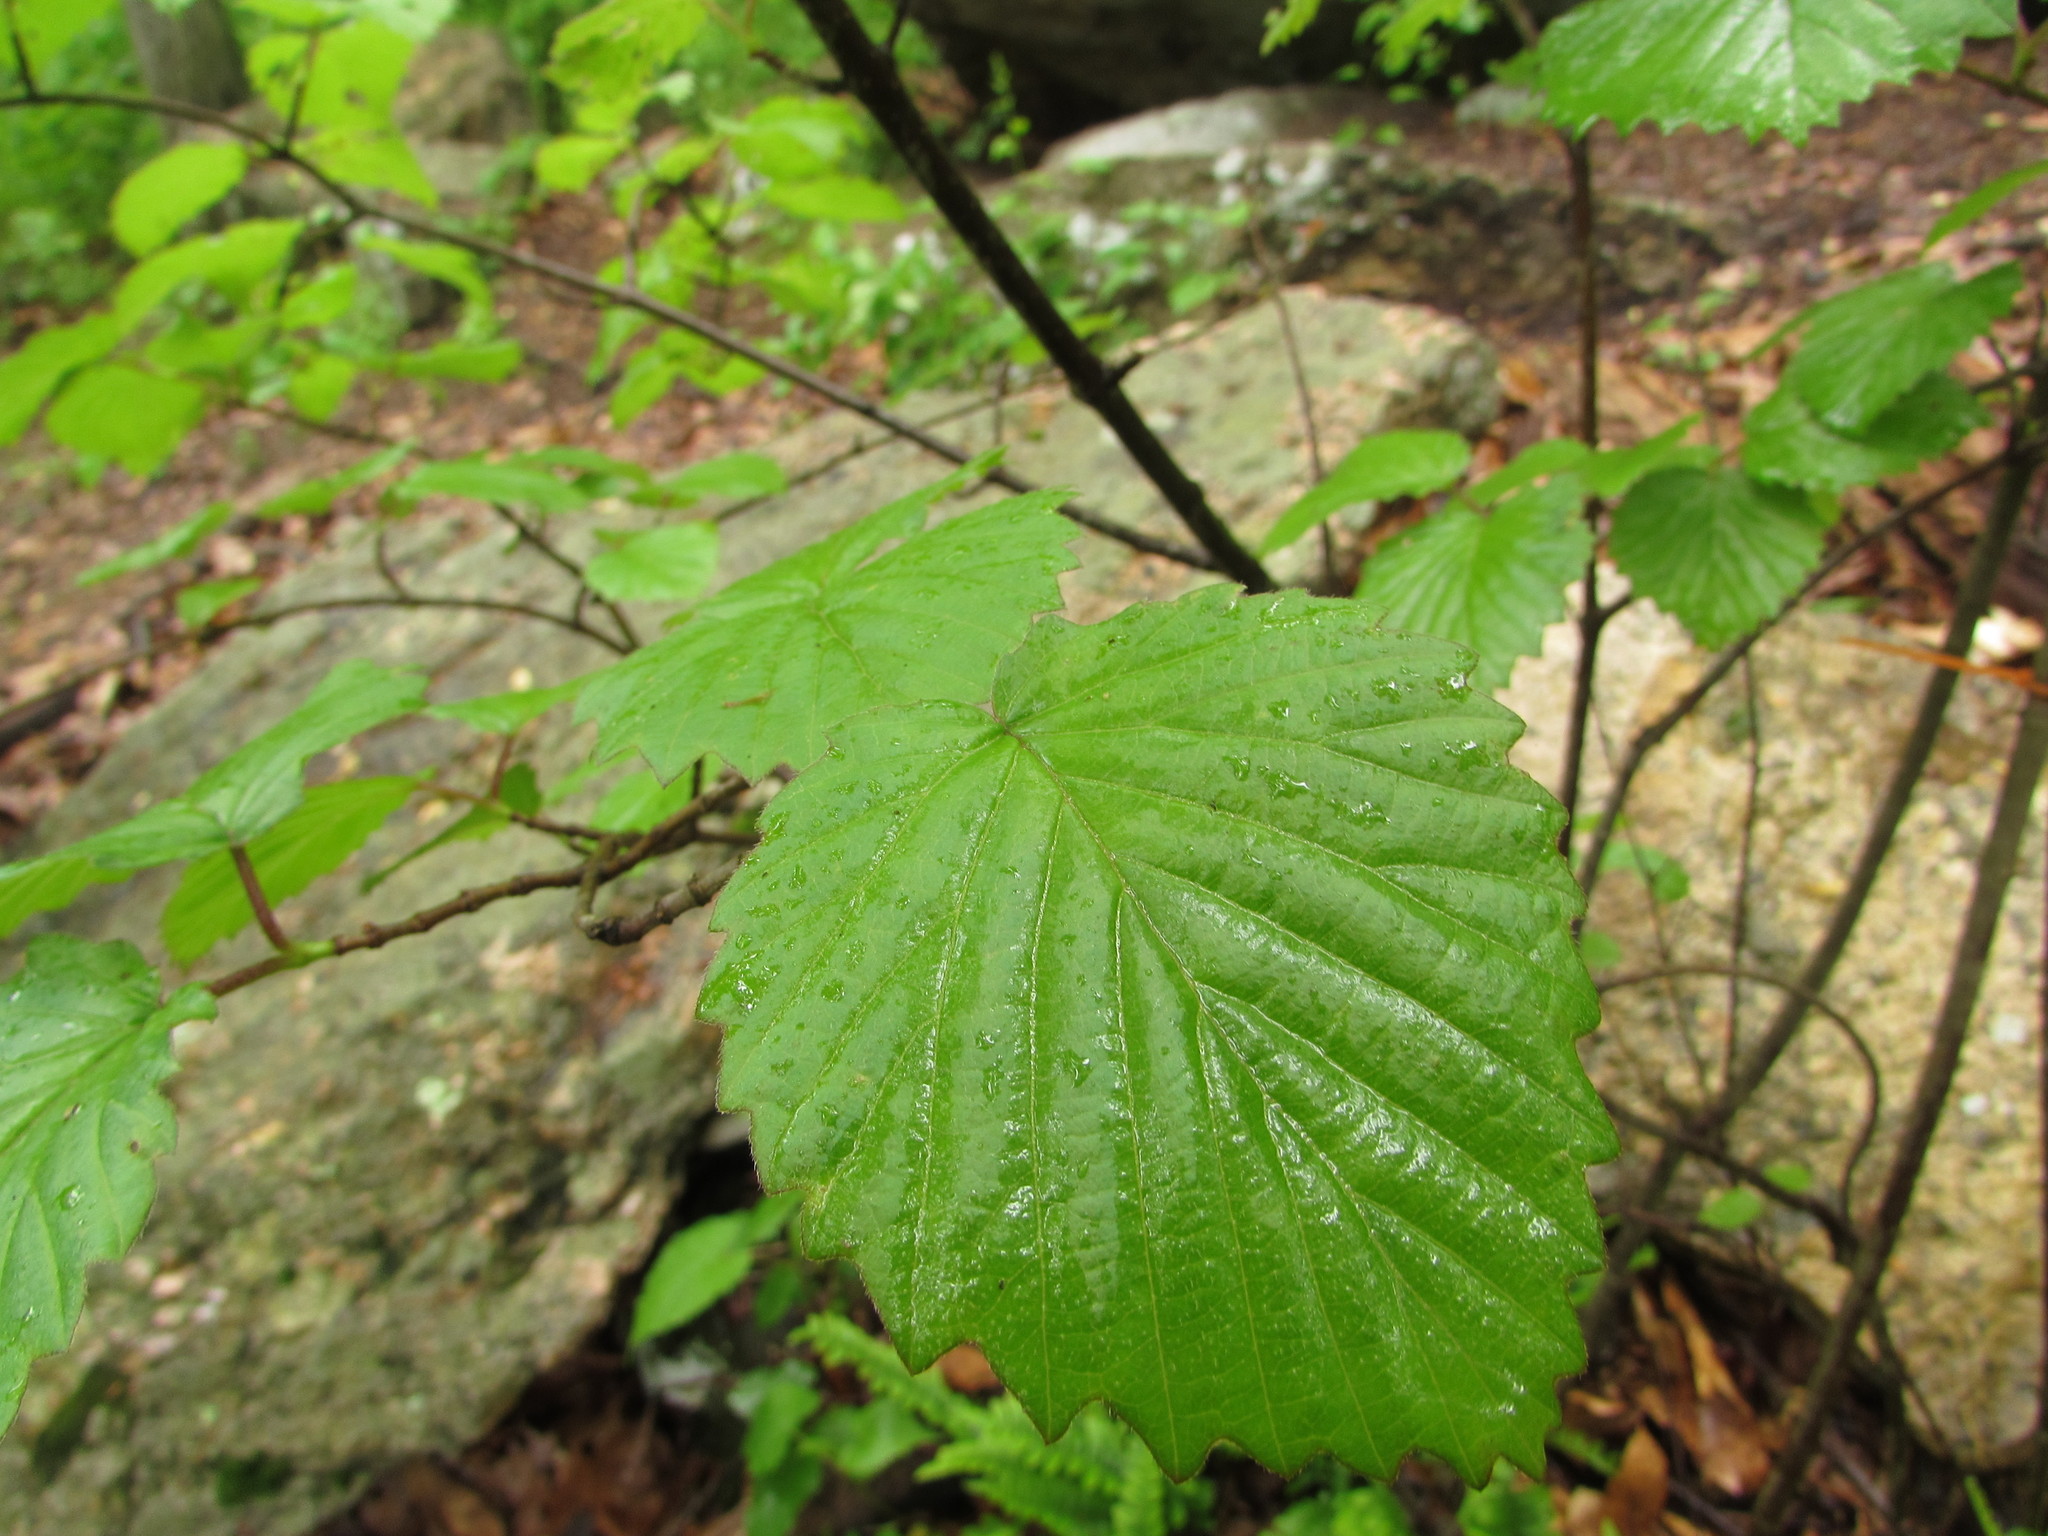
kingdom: Plantae
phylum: Tracheophyta
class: Magnoliopsida
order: Dipsacales
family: Viburnaceae
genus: Viburnum
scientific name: Viburnum dentatum
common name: Arrow-wood
